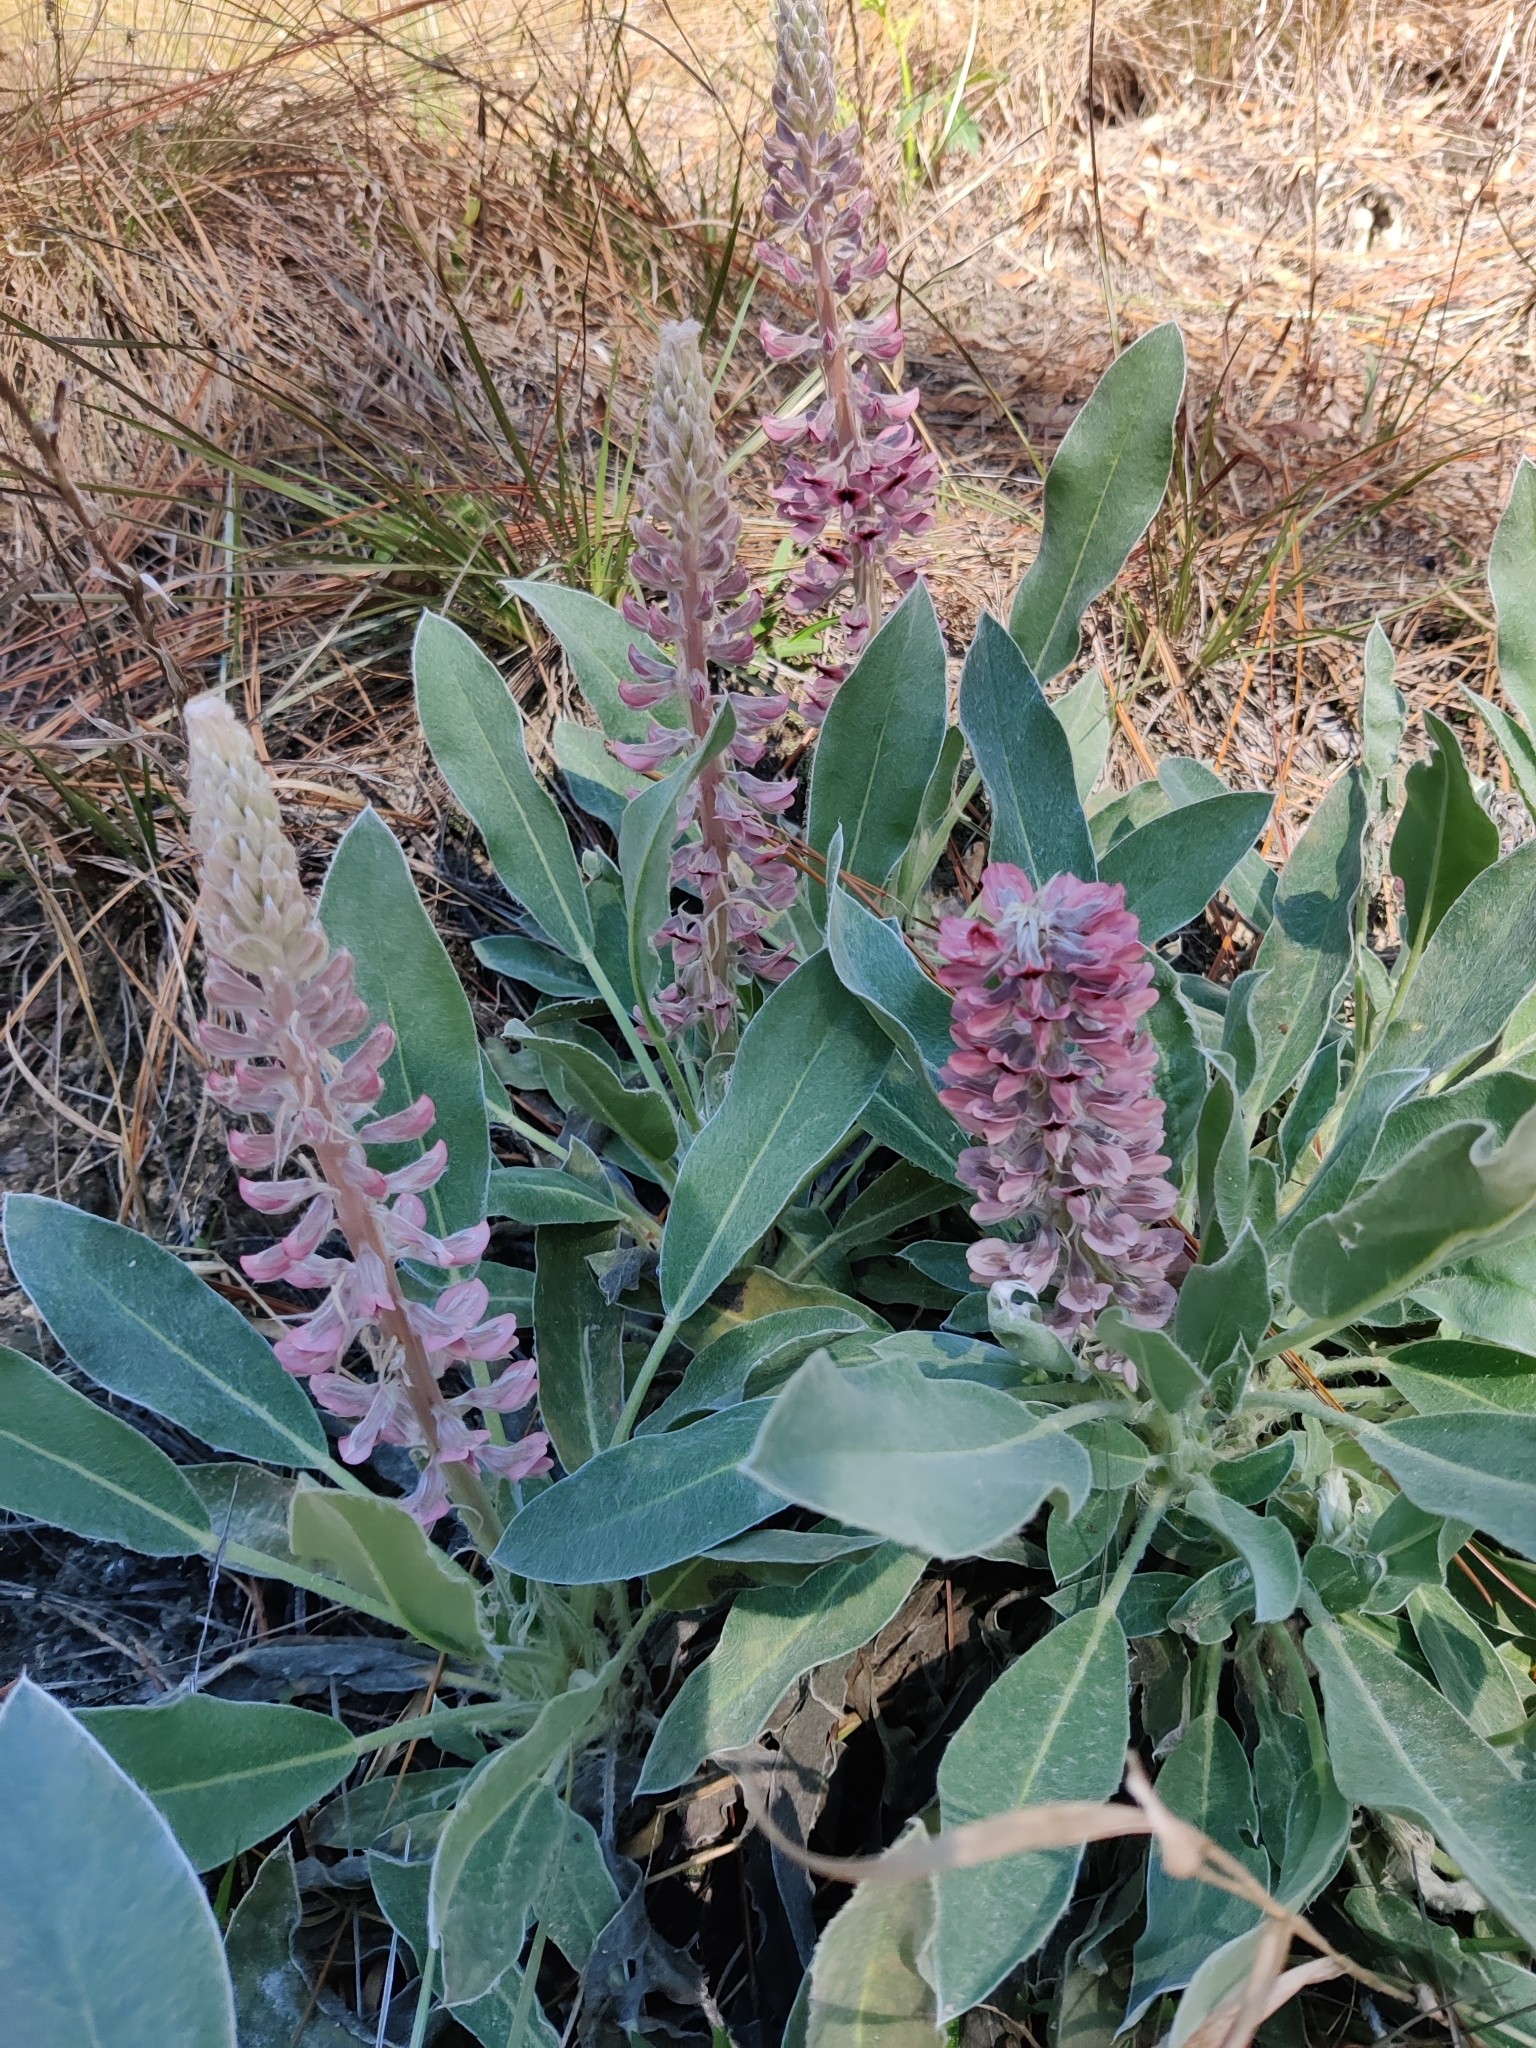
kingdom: Plantae
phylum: Tracheophyta
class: Magnoliopsida
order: Fabales
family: Fabaceae
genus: Lupinus
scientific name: Lupinus villosus
